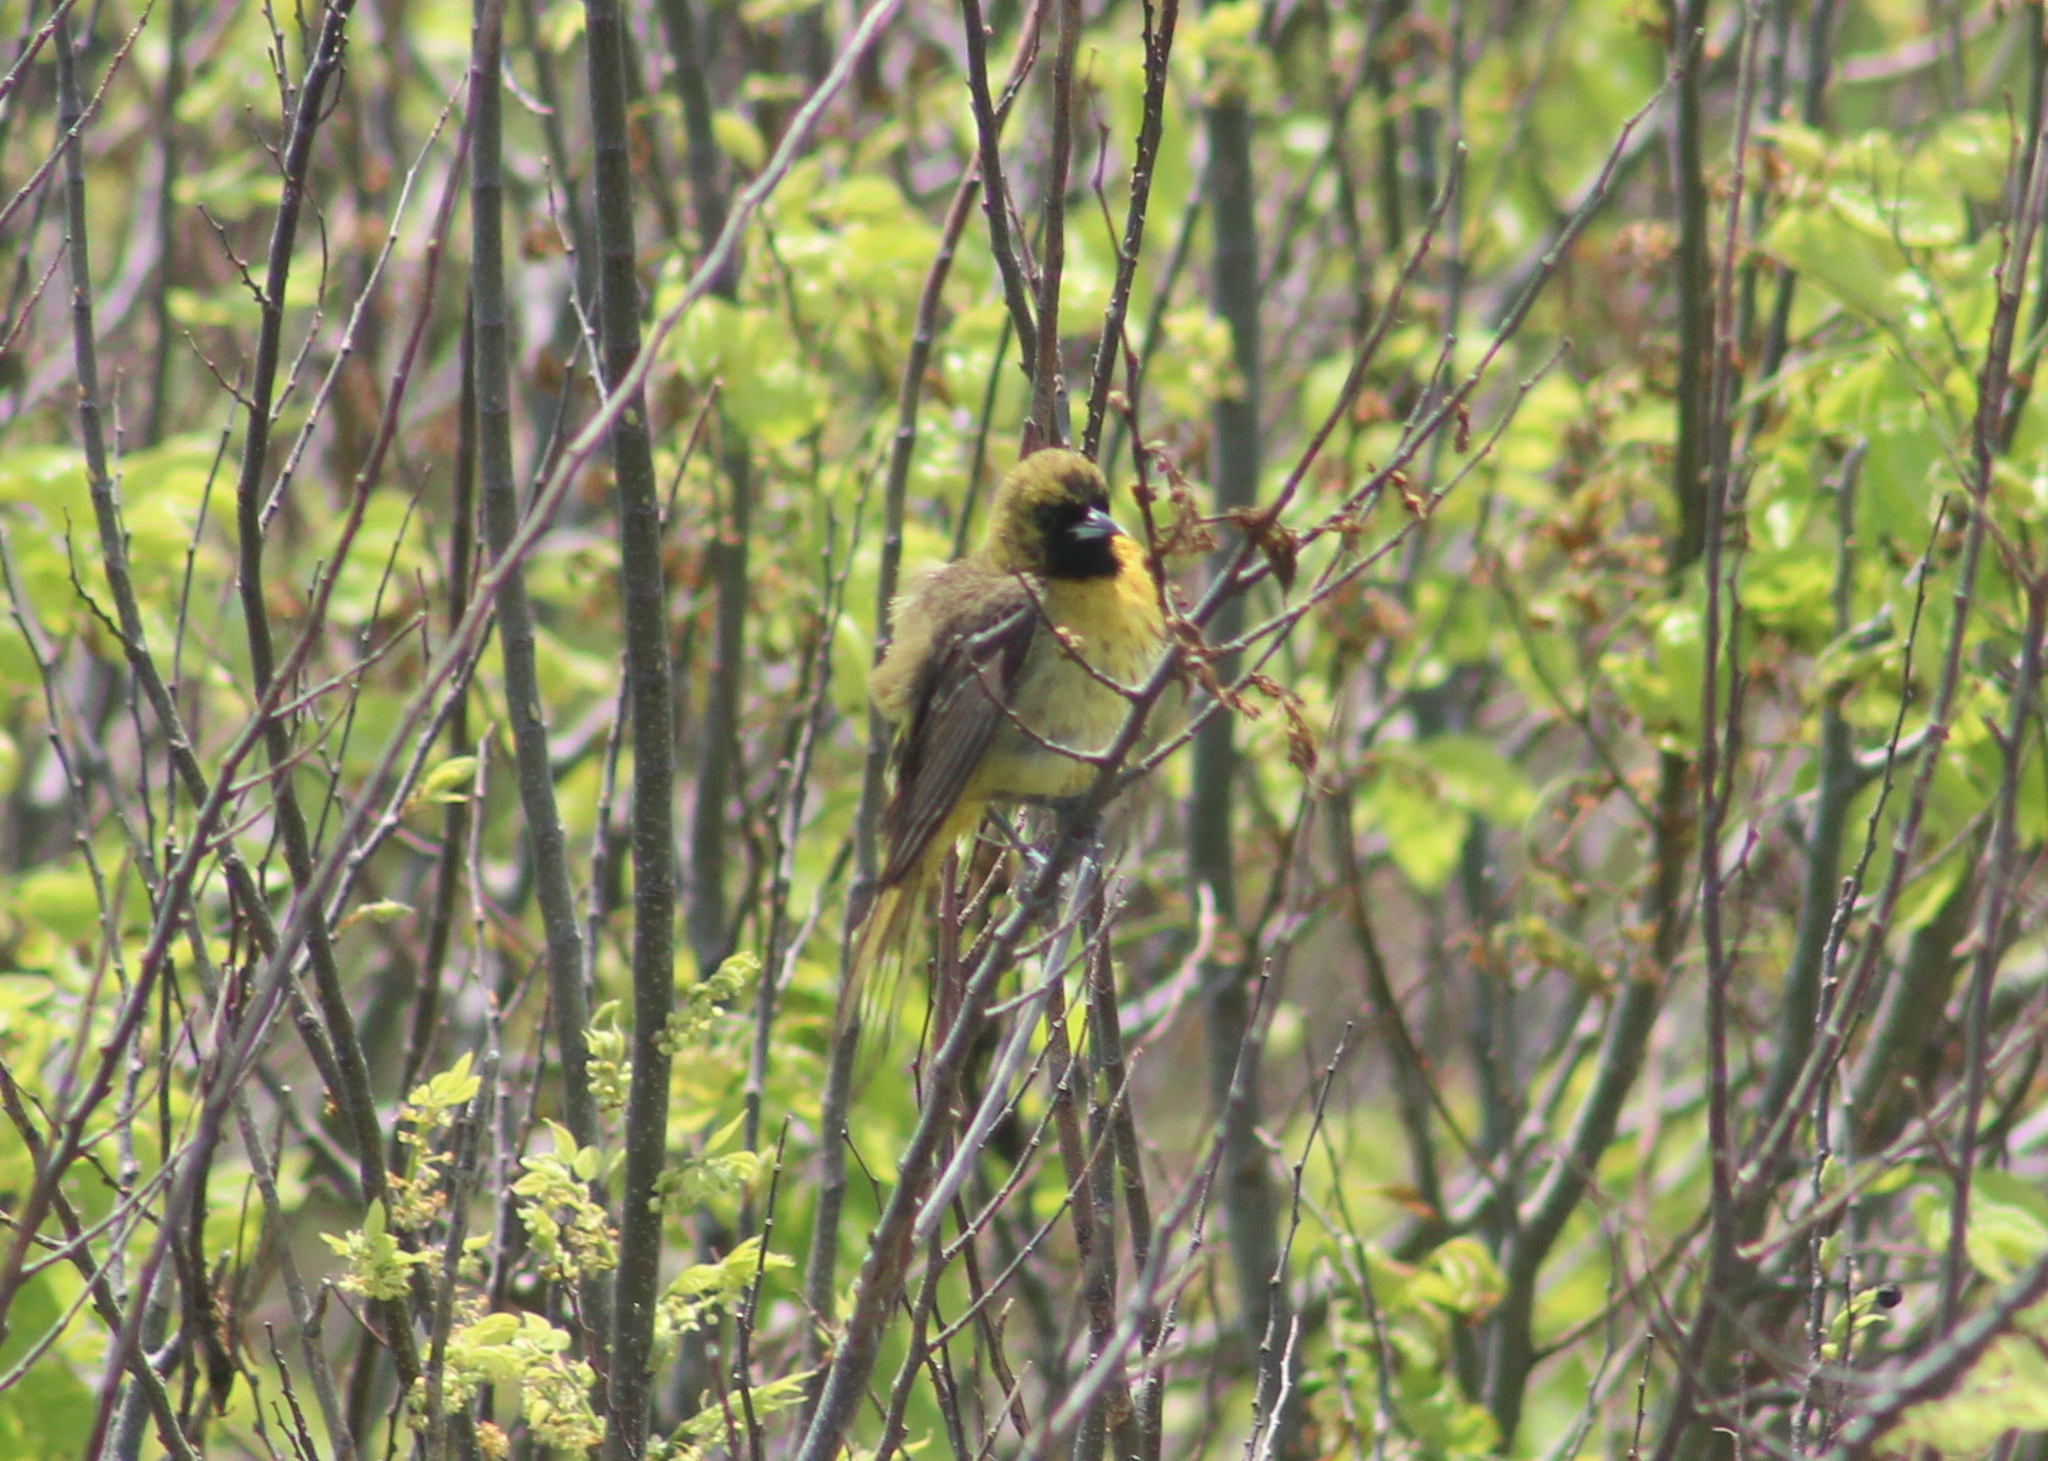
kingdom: Animalia
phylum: Chordata
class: Aves
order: Passeriformes
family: Icteridae
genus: Icterus
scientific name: Icterus spurius
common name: Orchard oriole
